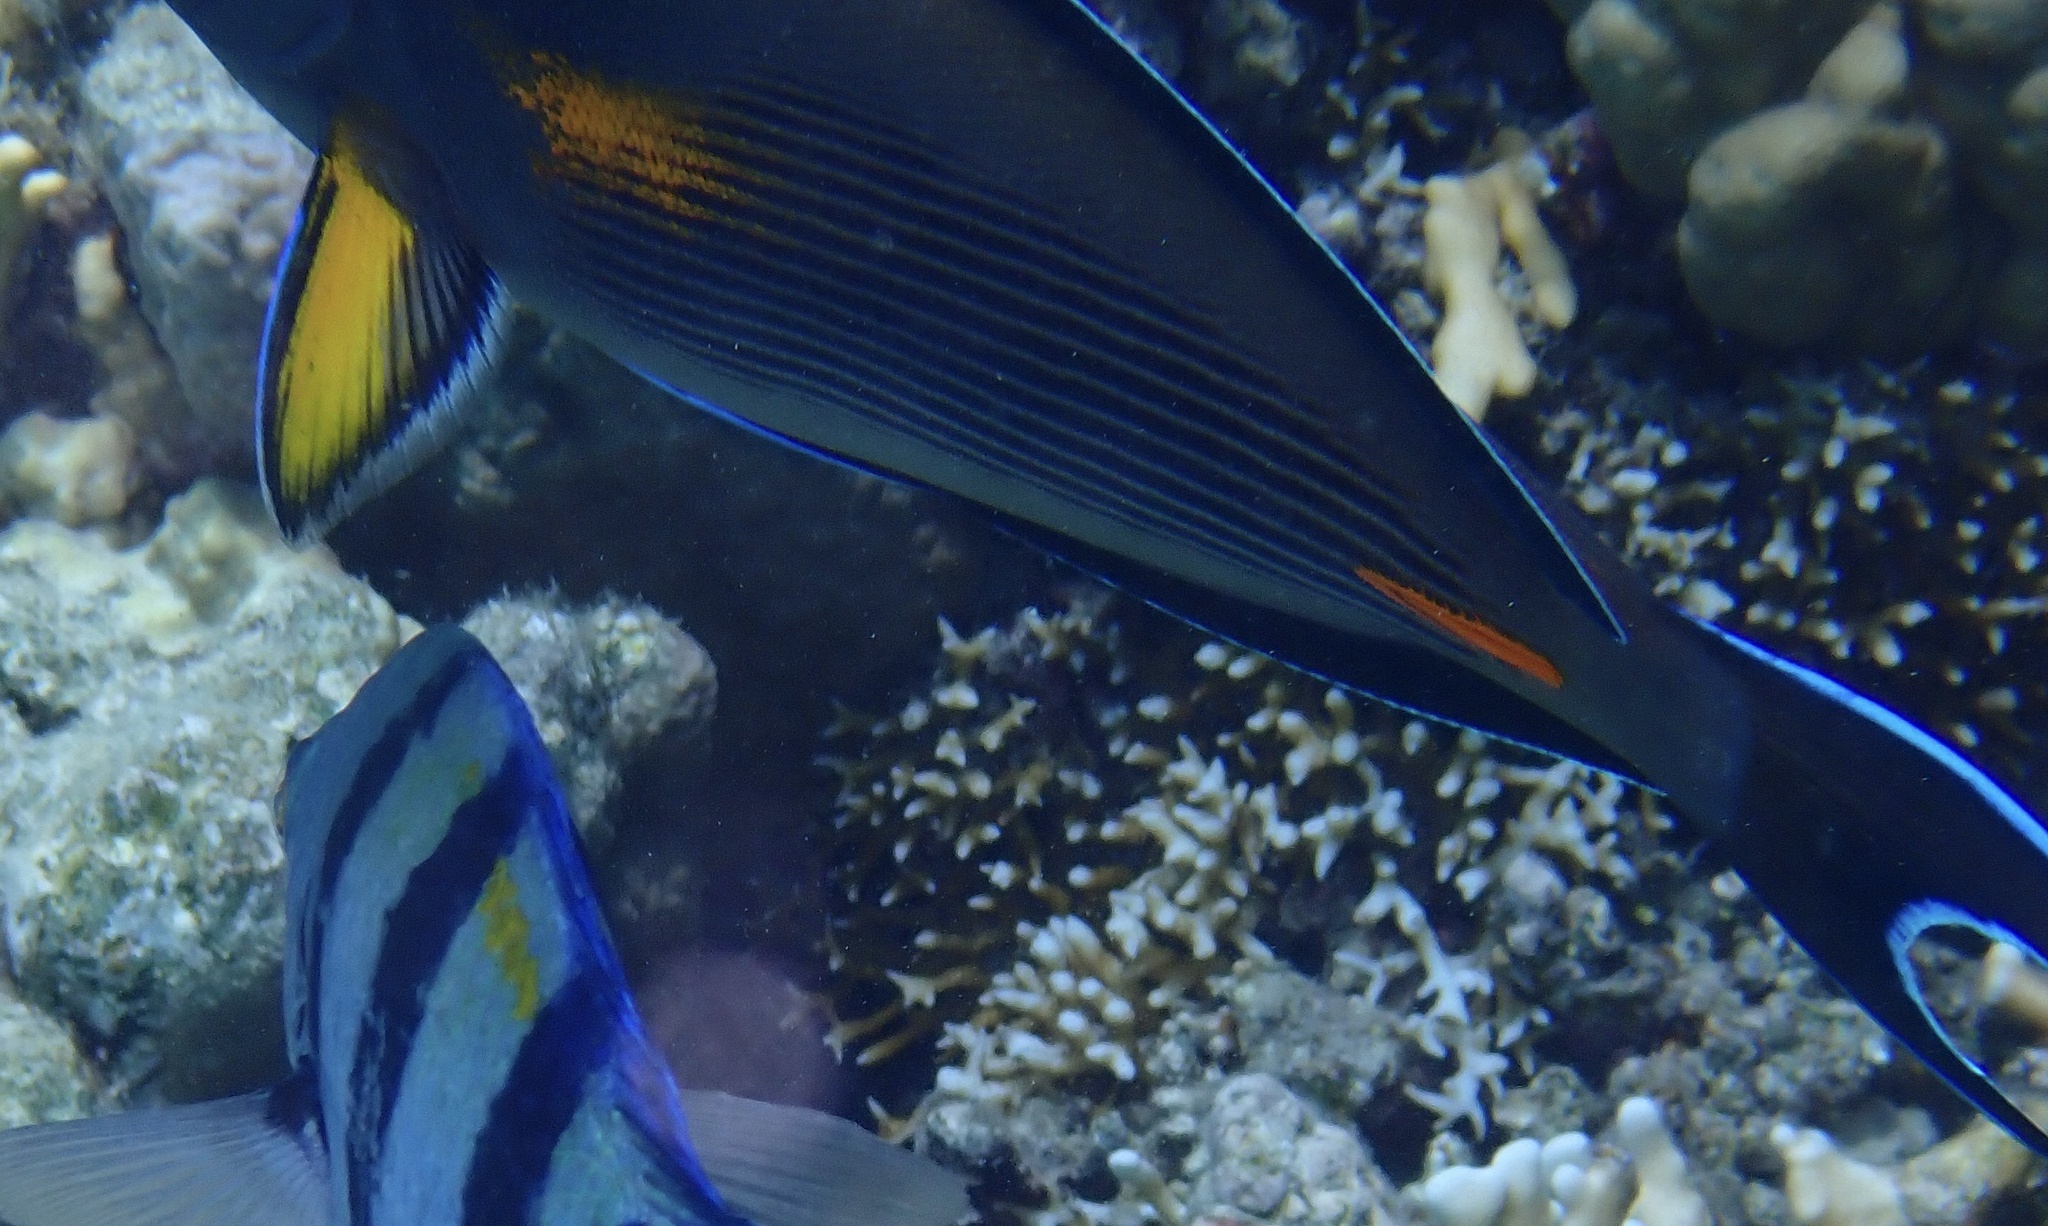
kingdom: Animalia
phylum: Chordata
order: Perciformes
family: Acanthuridae
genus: Acanthurus
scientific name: Acanthurus sohal
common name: Red sea surgeonfish
